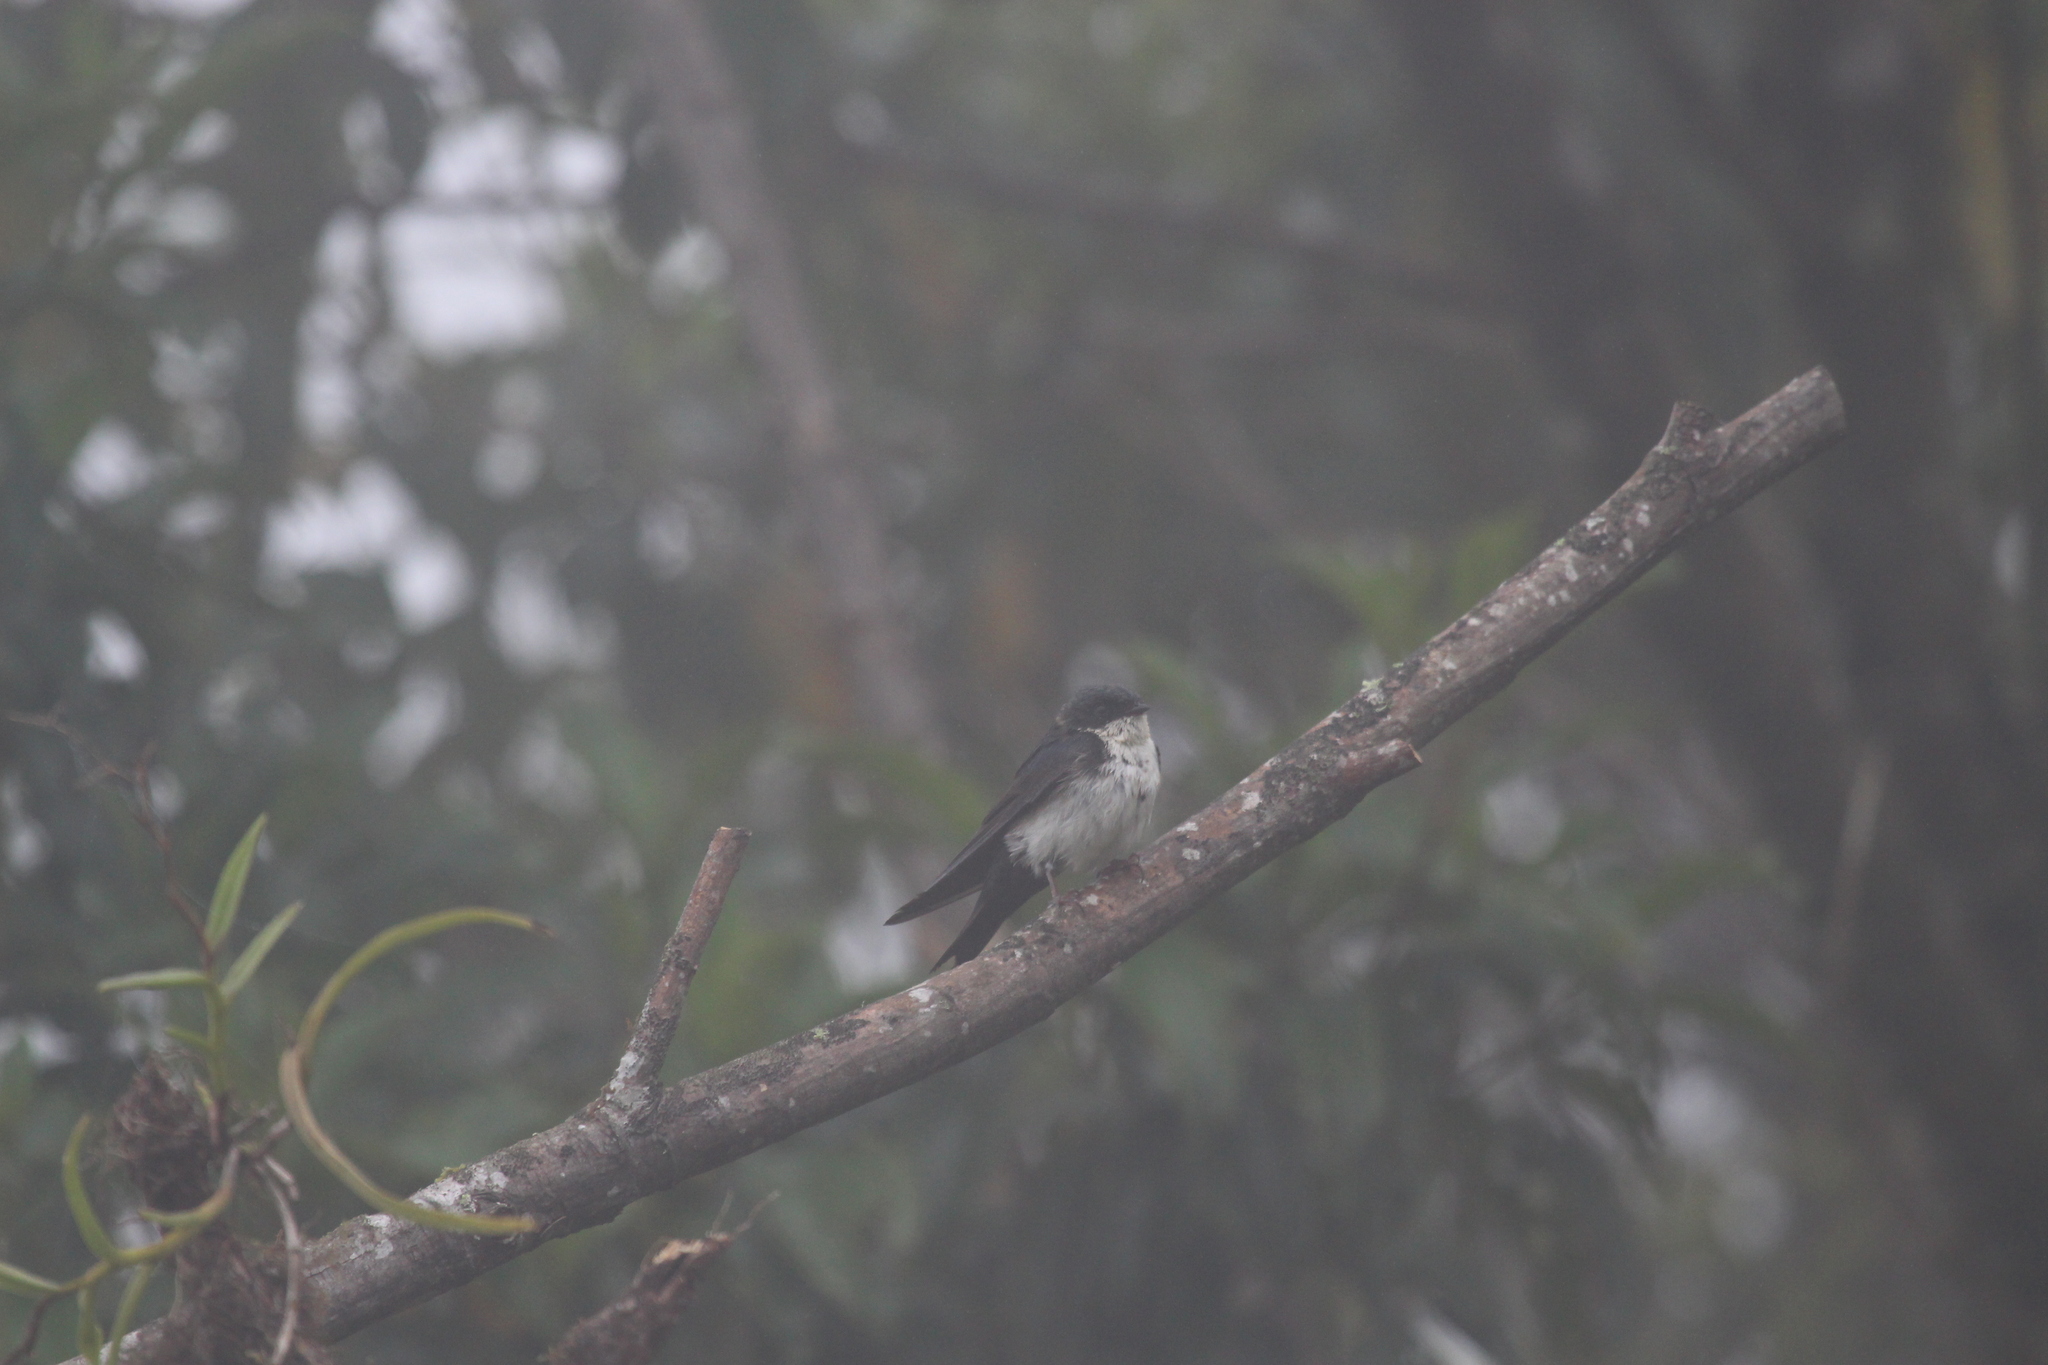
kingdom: Animalia
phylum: Chordata
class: Aves
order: Passeriformes
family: Hirundinidae
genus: Notiochelidon
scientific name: Notiochelidon cyanoleuca
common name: Blue-and-white swallow
